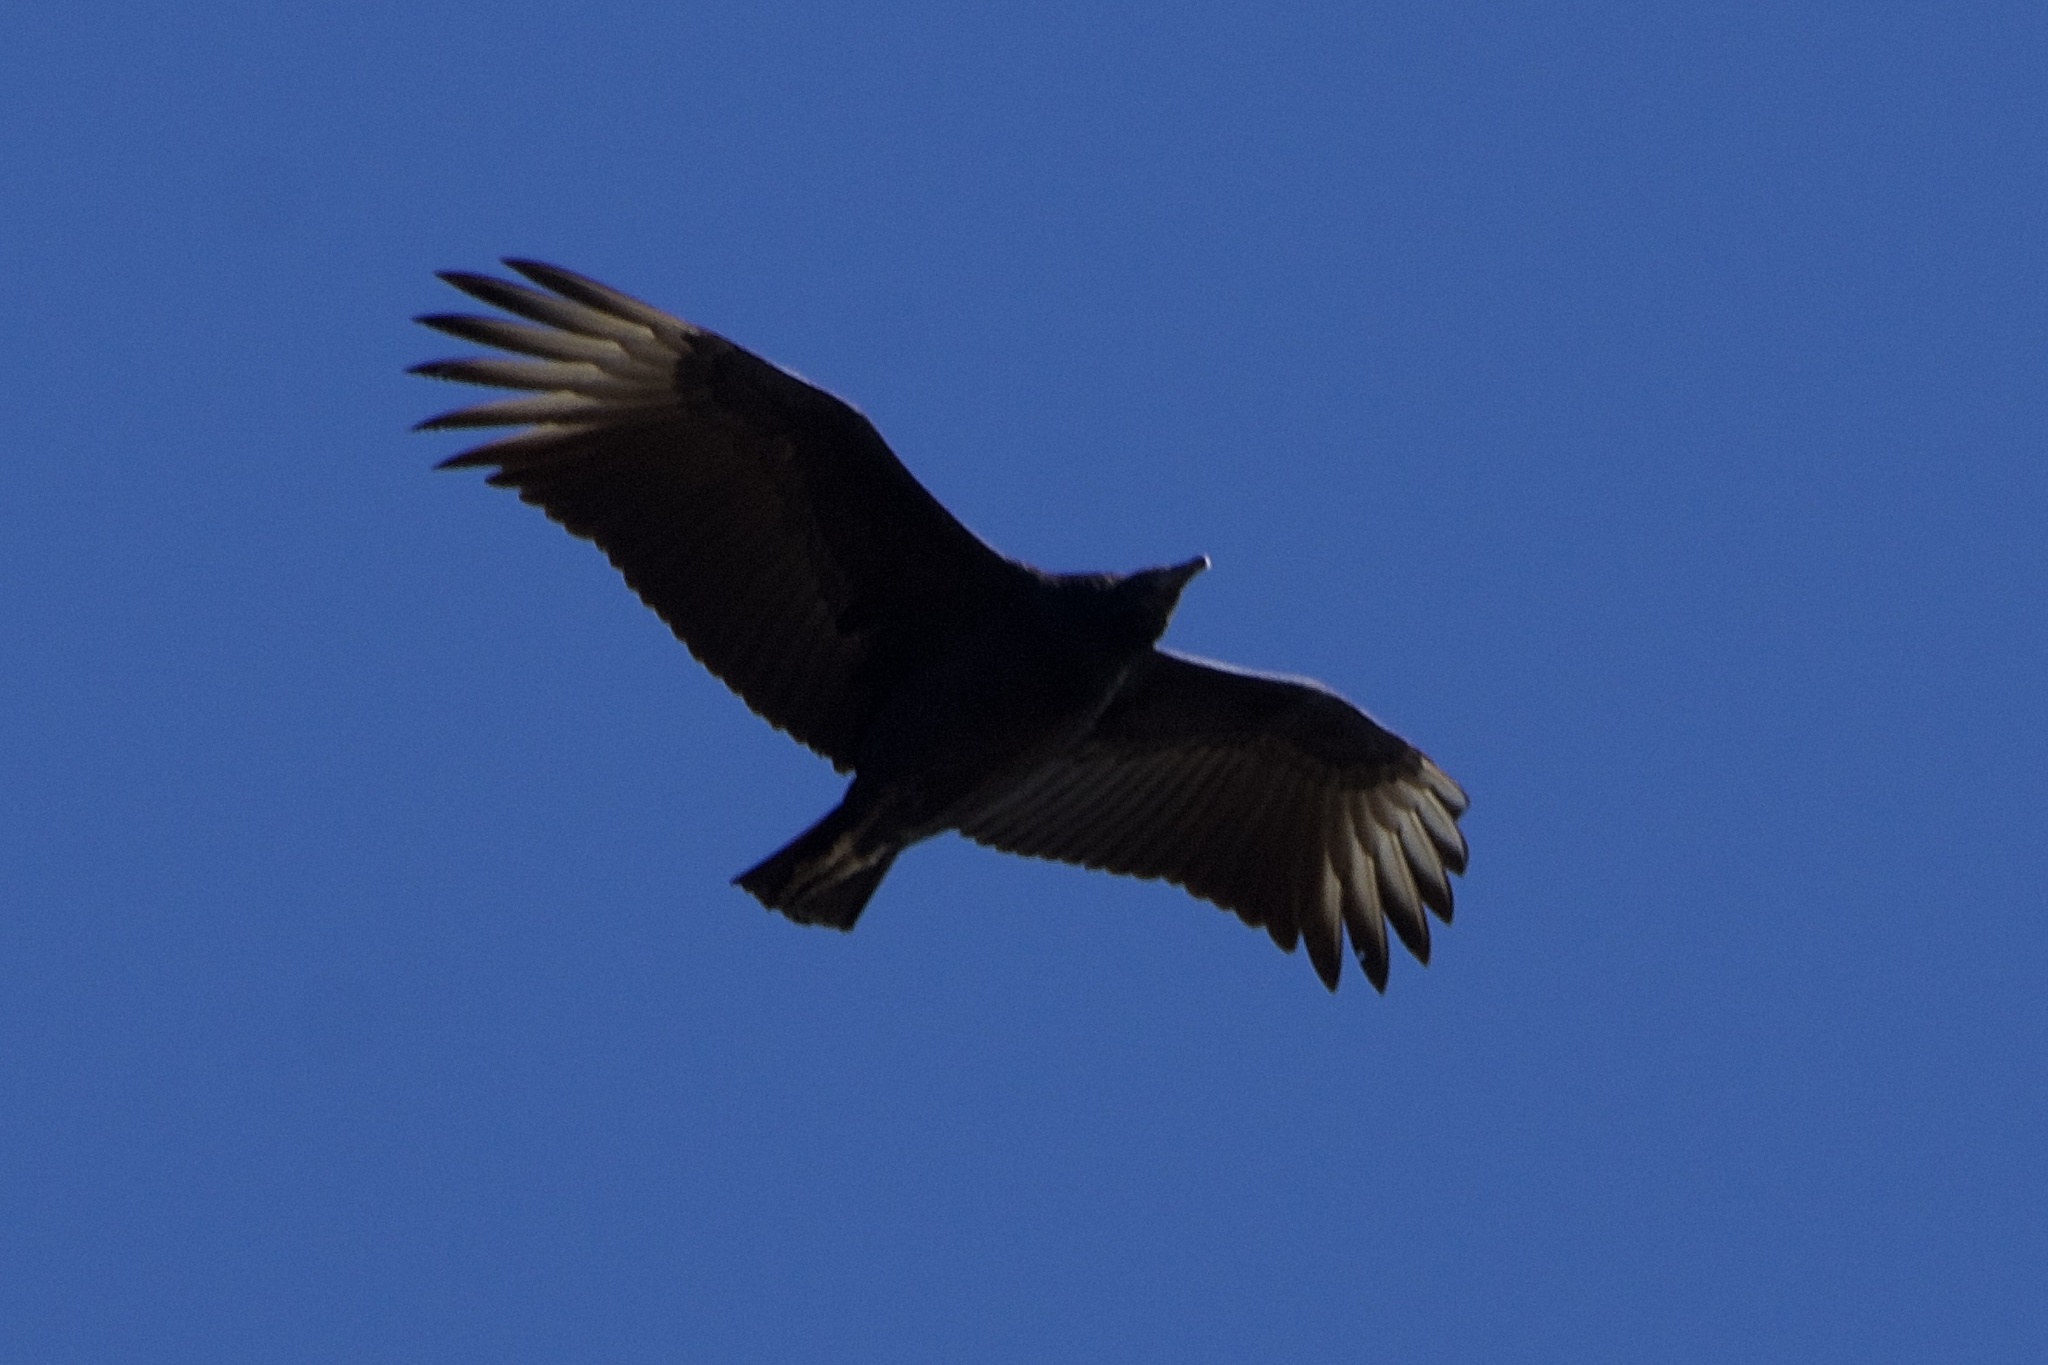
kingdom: Animalia
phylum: Chordata
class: Aves
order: Accipitriformes
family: Cathartidae
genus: Coragyps
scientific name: Coragyps atratus
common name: Black vulture
